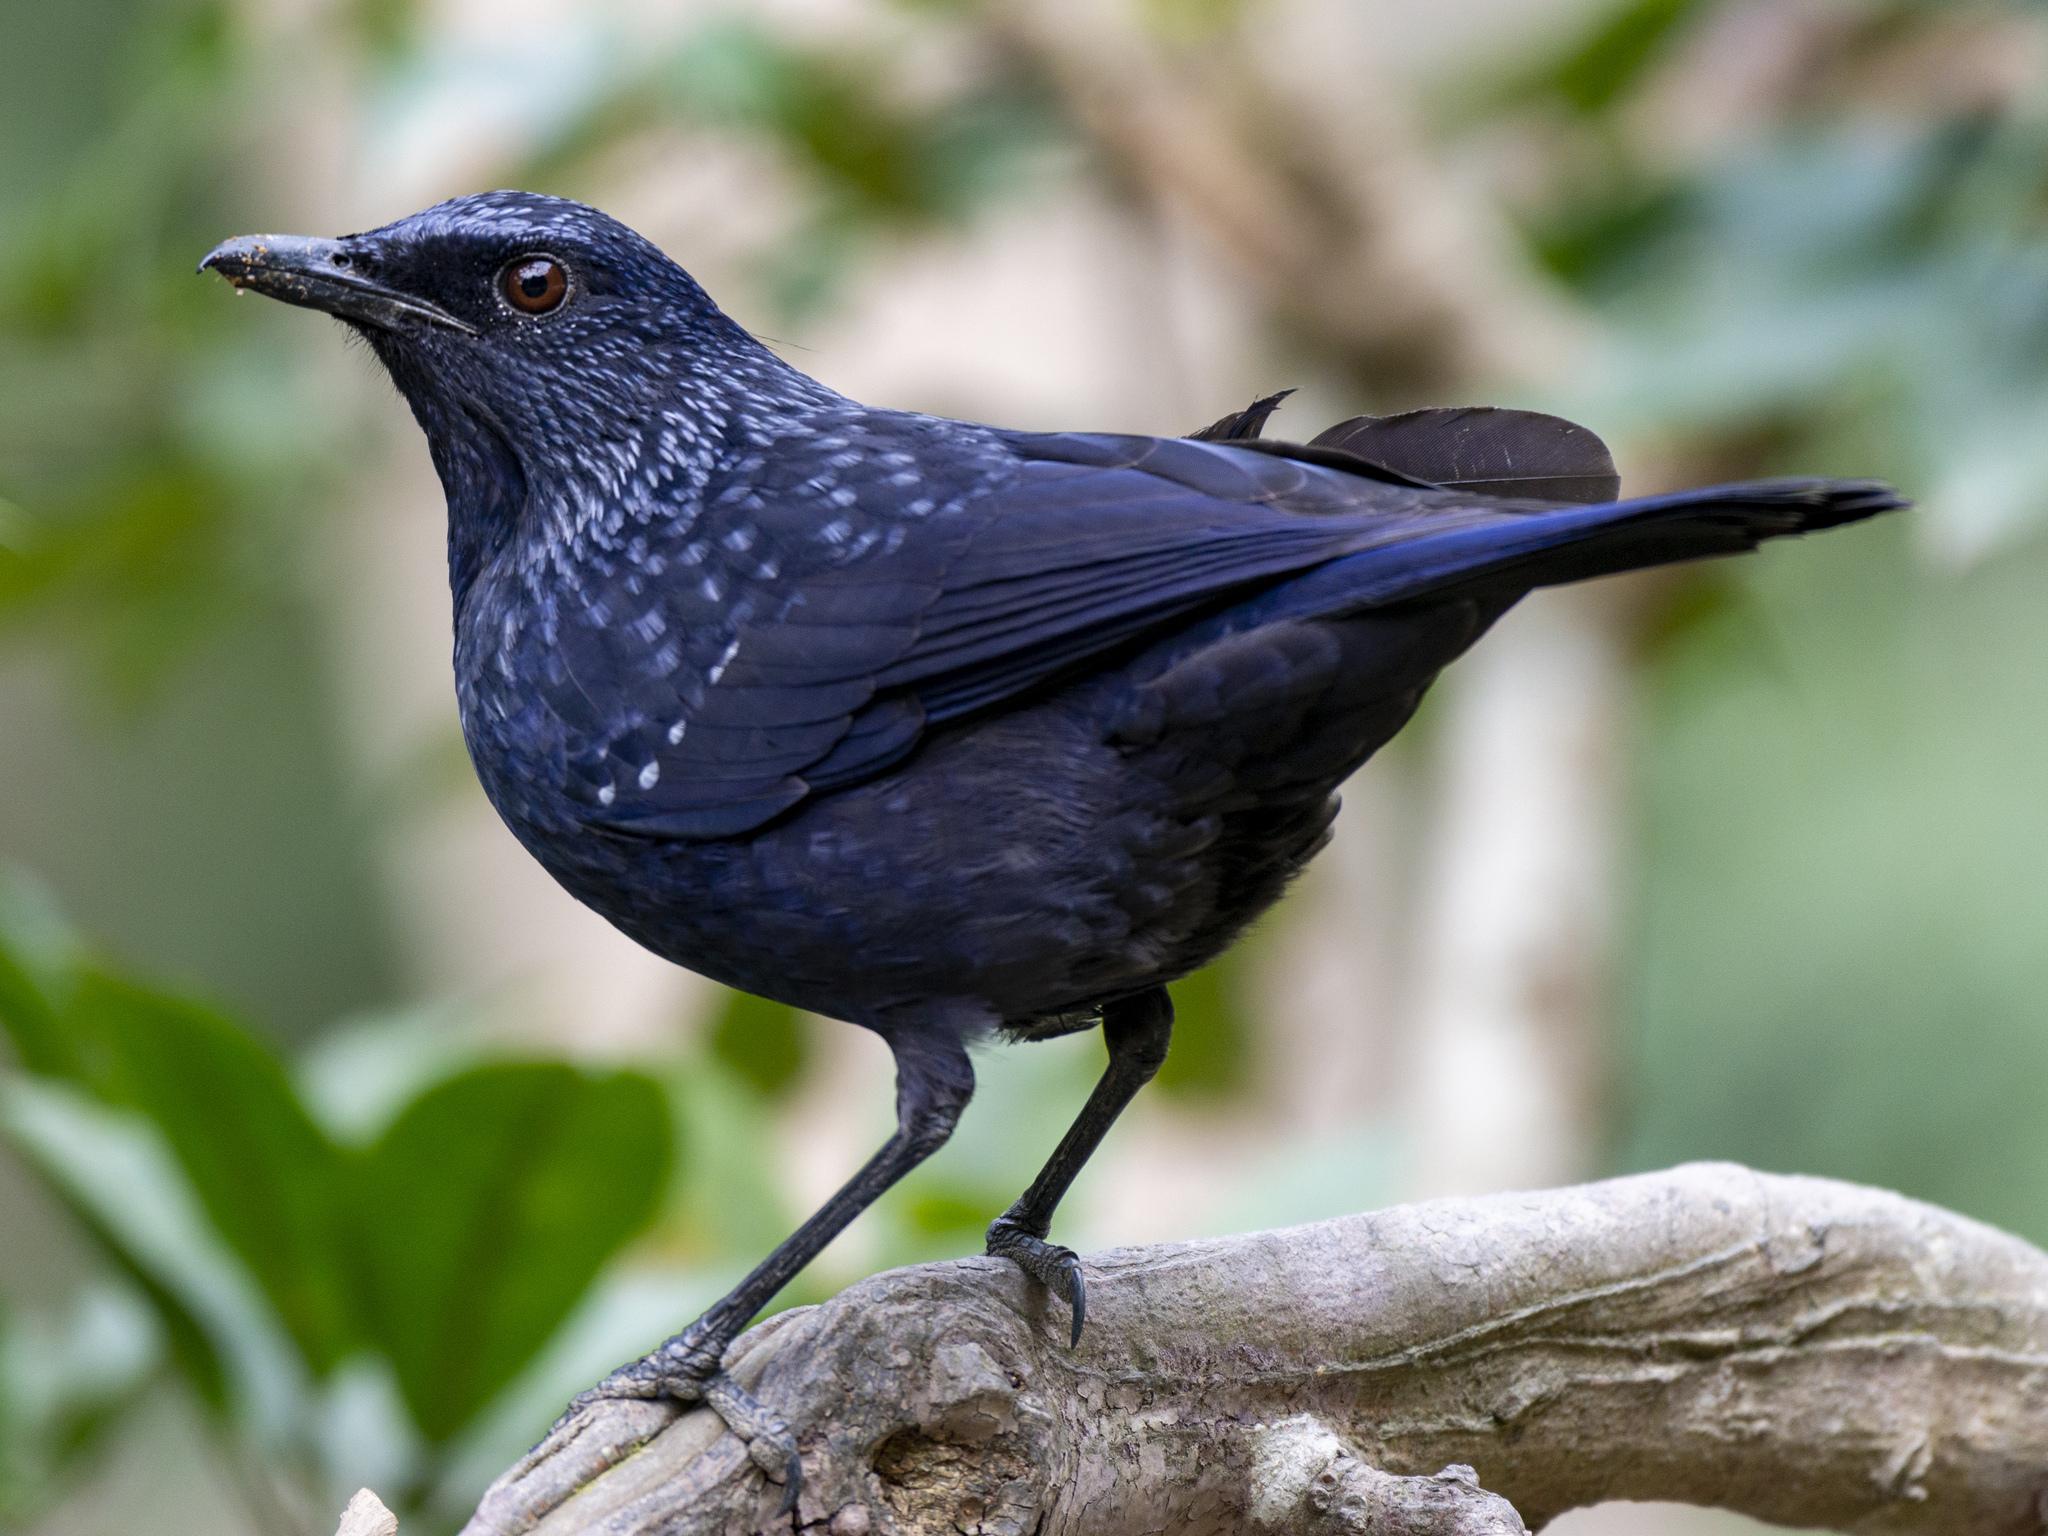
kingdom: Animalia
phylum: Chordata
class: Aves
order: Passeriformes
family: Muscicapidae
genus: Myophonus
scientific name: Myophonus caeruleus
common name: Blue whistling-thrush
